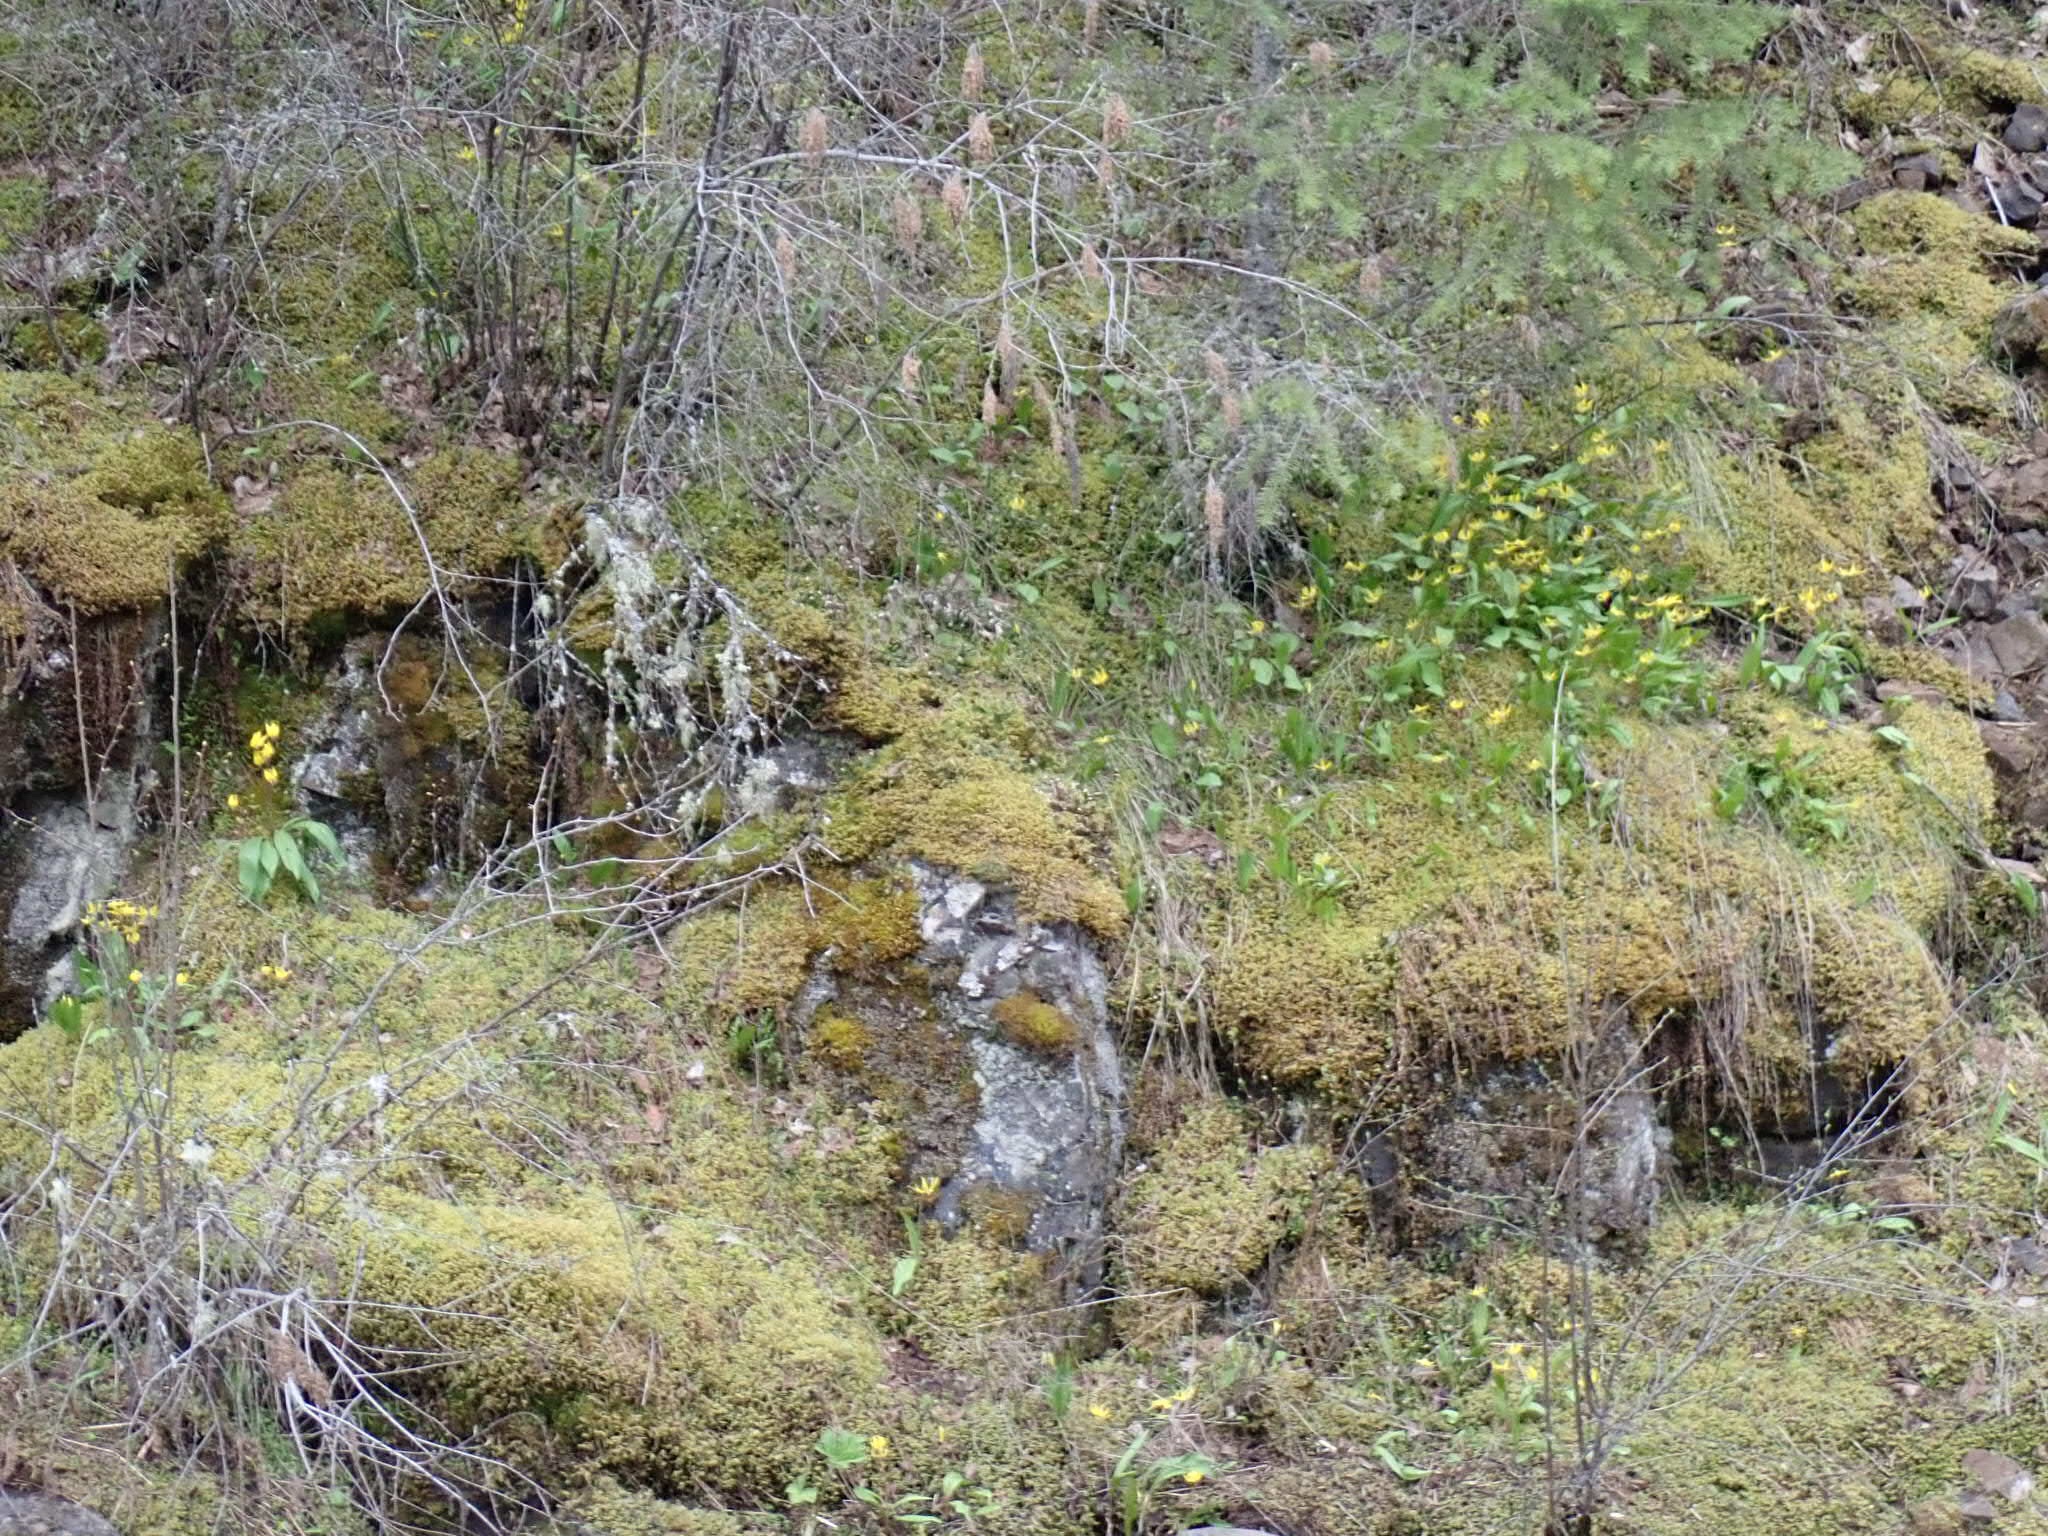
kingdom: Plantae
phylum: Tracheophyta
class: Liliopsida
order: Liliales
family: Liliaceae
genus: Erythronium
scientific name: Erythronium grandiflorum
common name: Avalanche-lily
